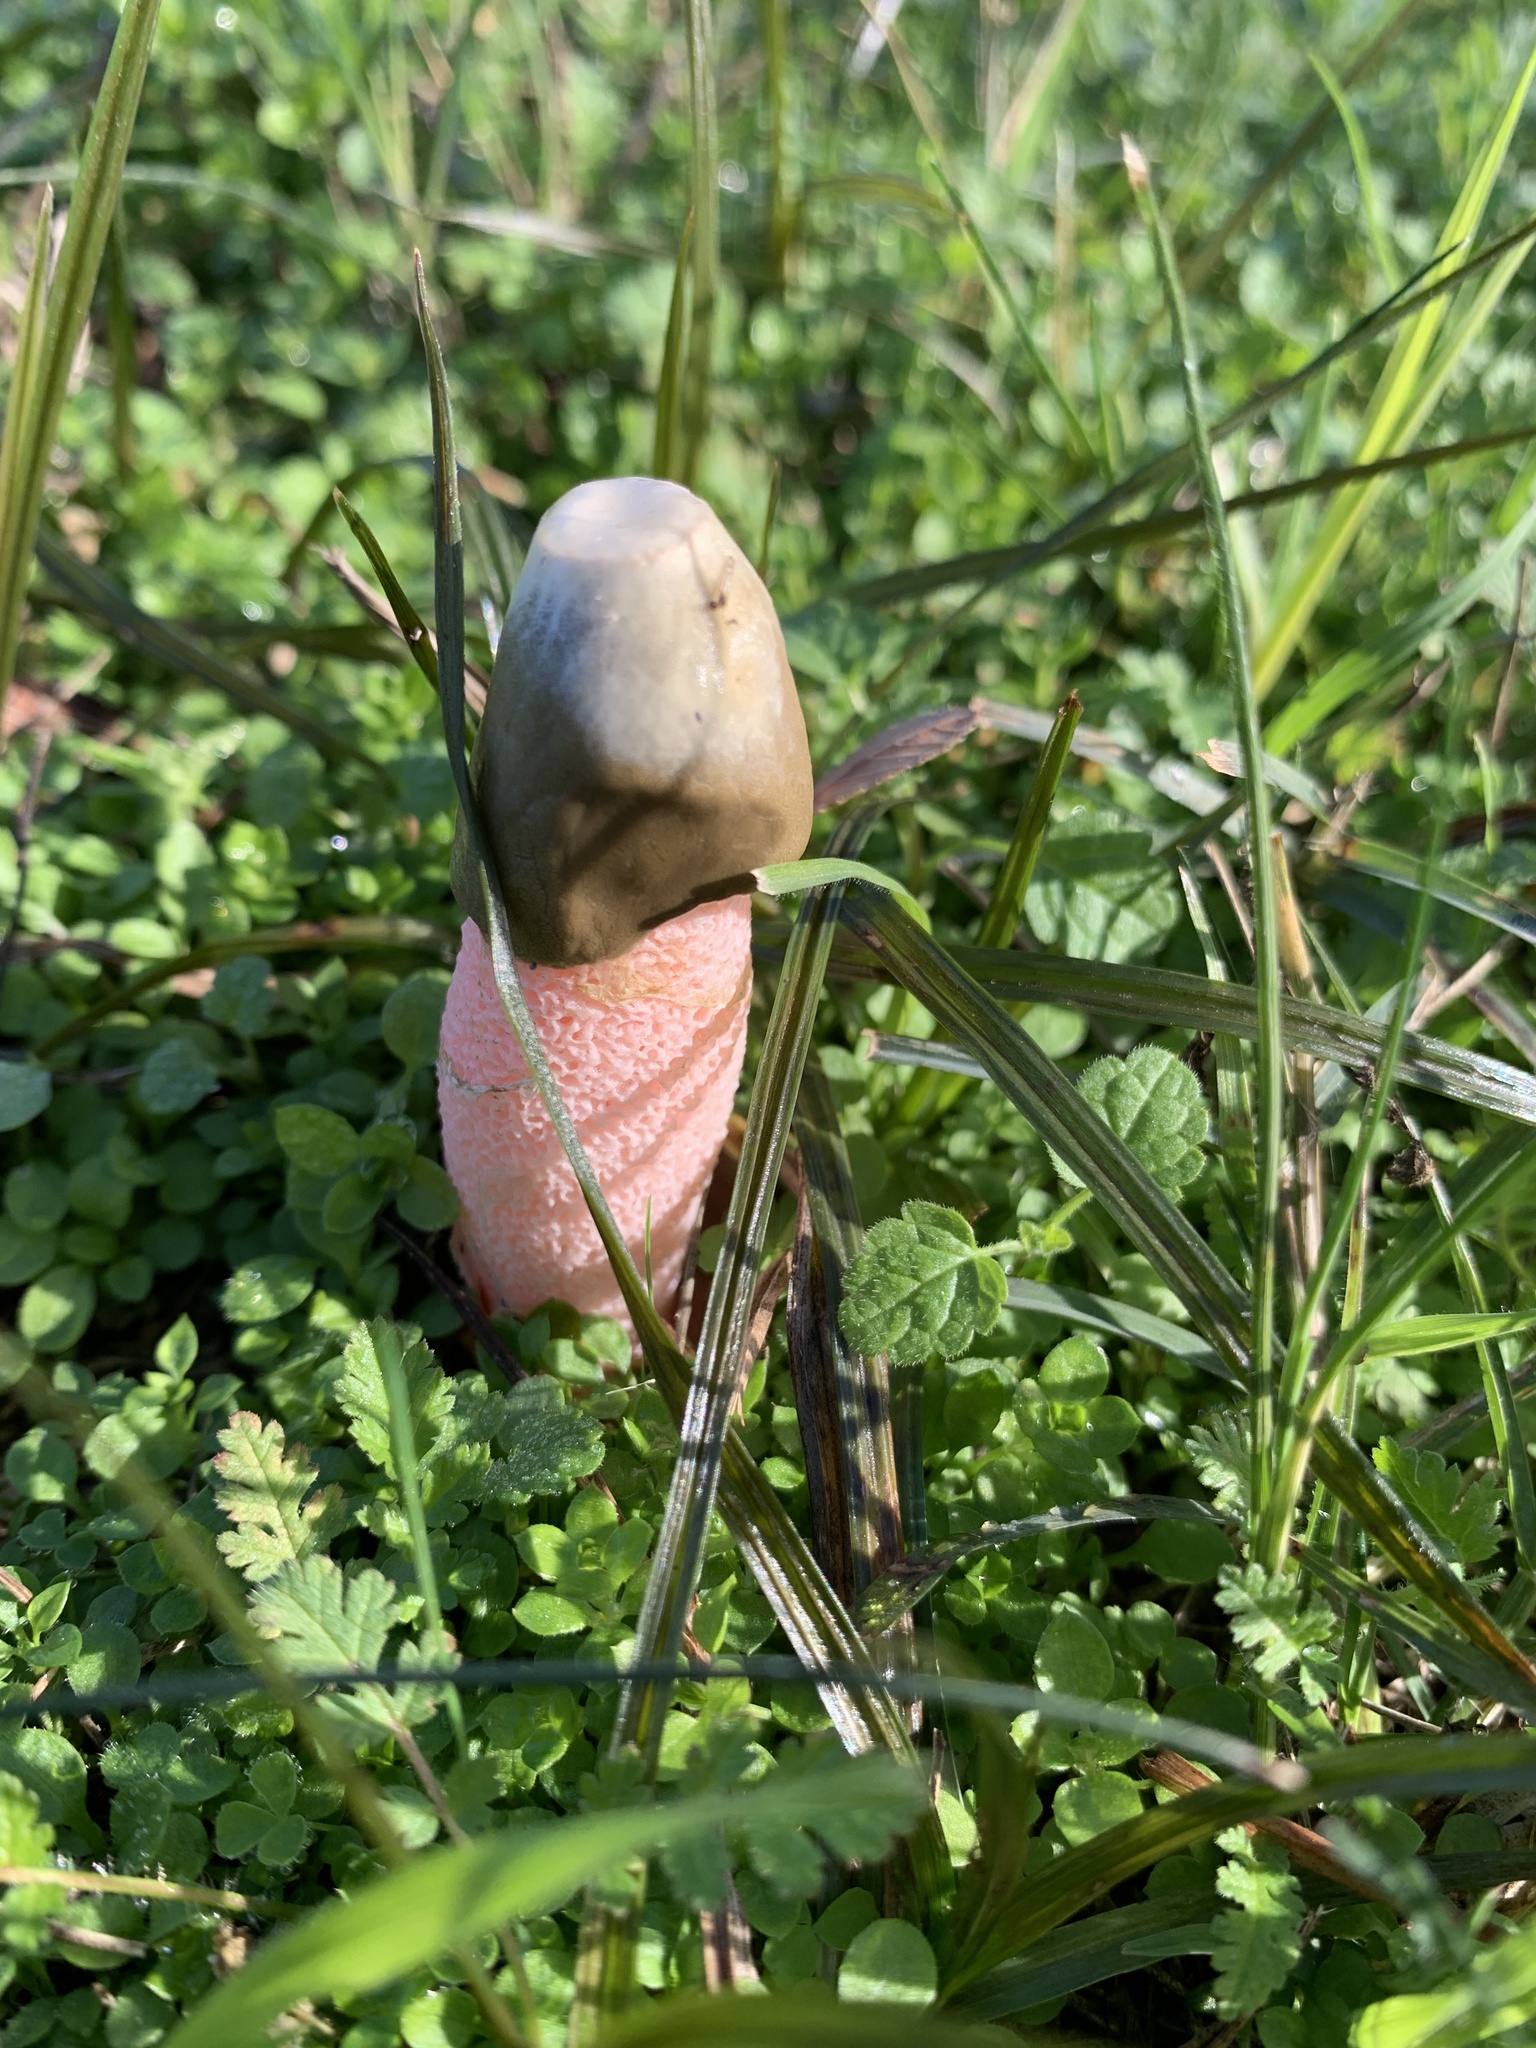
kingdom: Fungi
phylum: Basidiomycota
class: Agaricomycetes
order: Phallales
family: Phallaceae
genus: Phallus
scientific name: Phallus rubicundus
